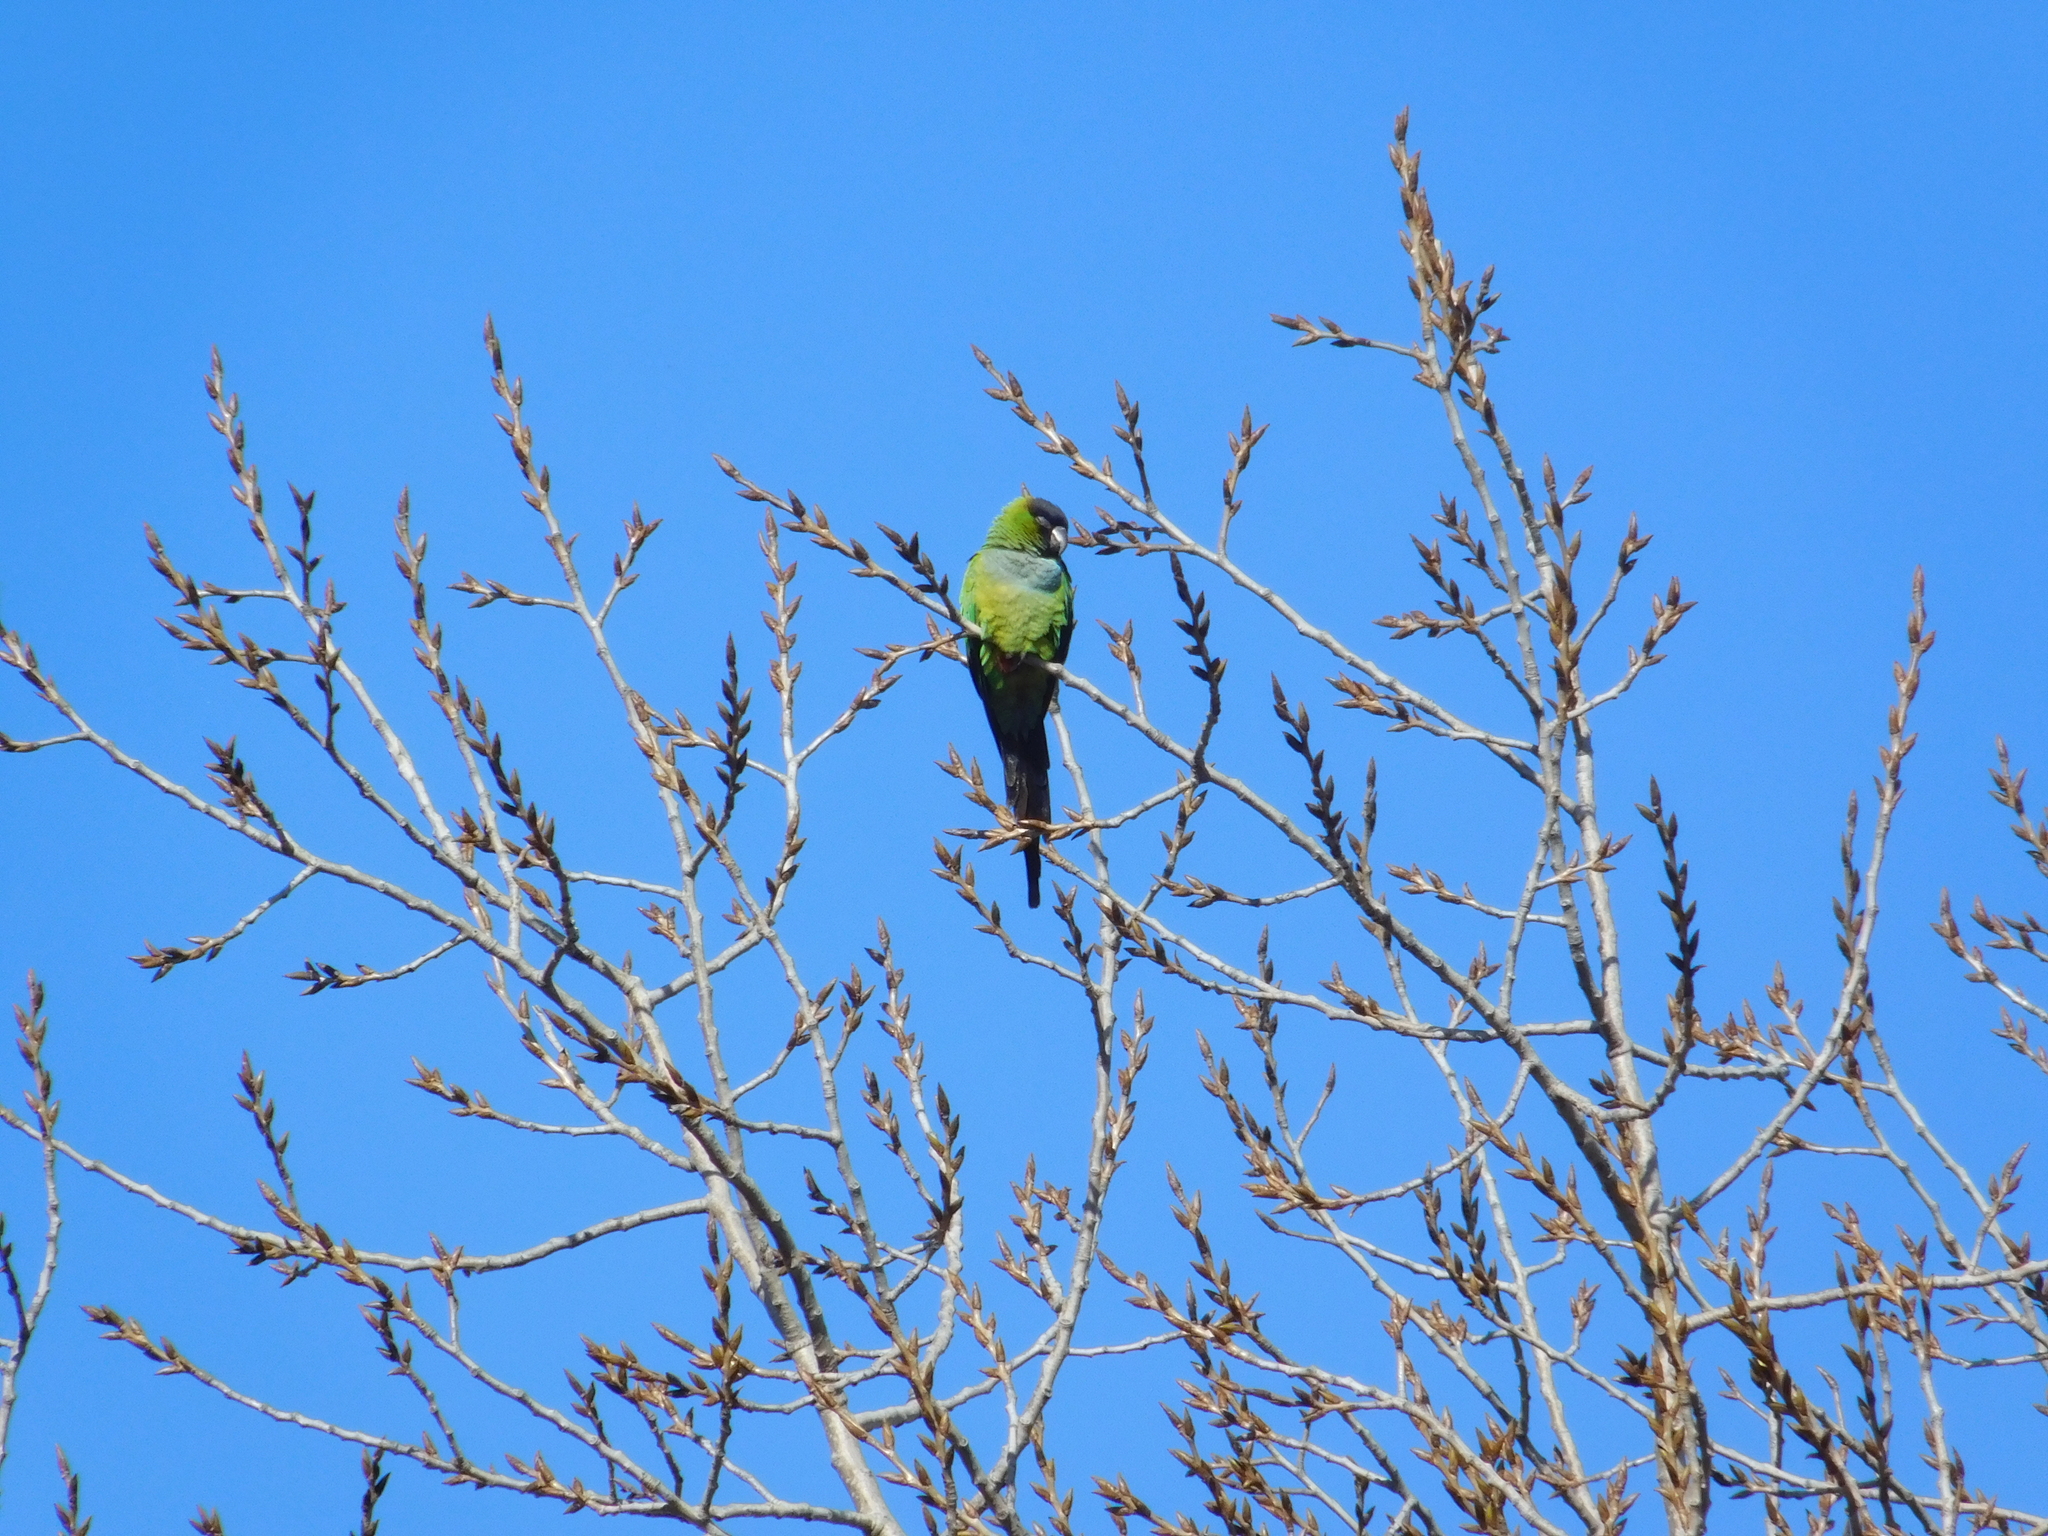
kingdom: Animalia
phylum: Chordata
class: Aves
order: Psittaciformes
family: Psittacidae
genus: Nandayus
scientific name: Nandayus nenday
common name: Nanday parakeet
